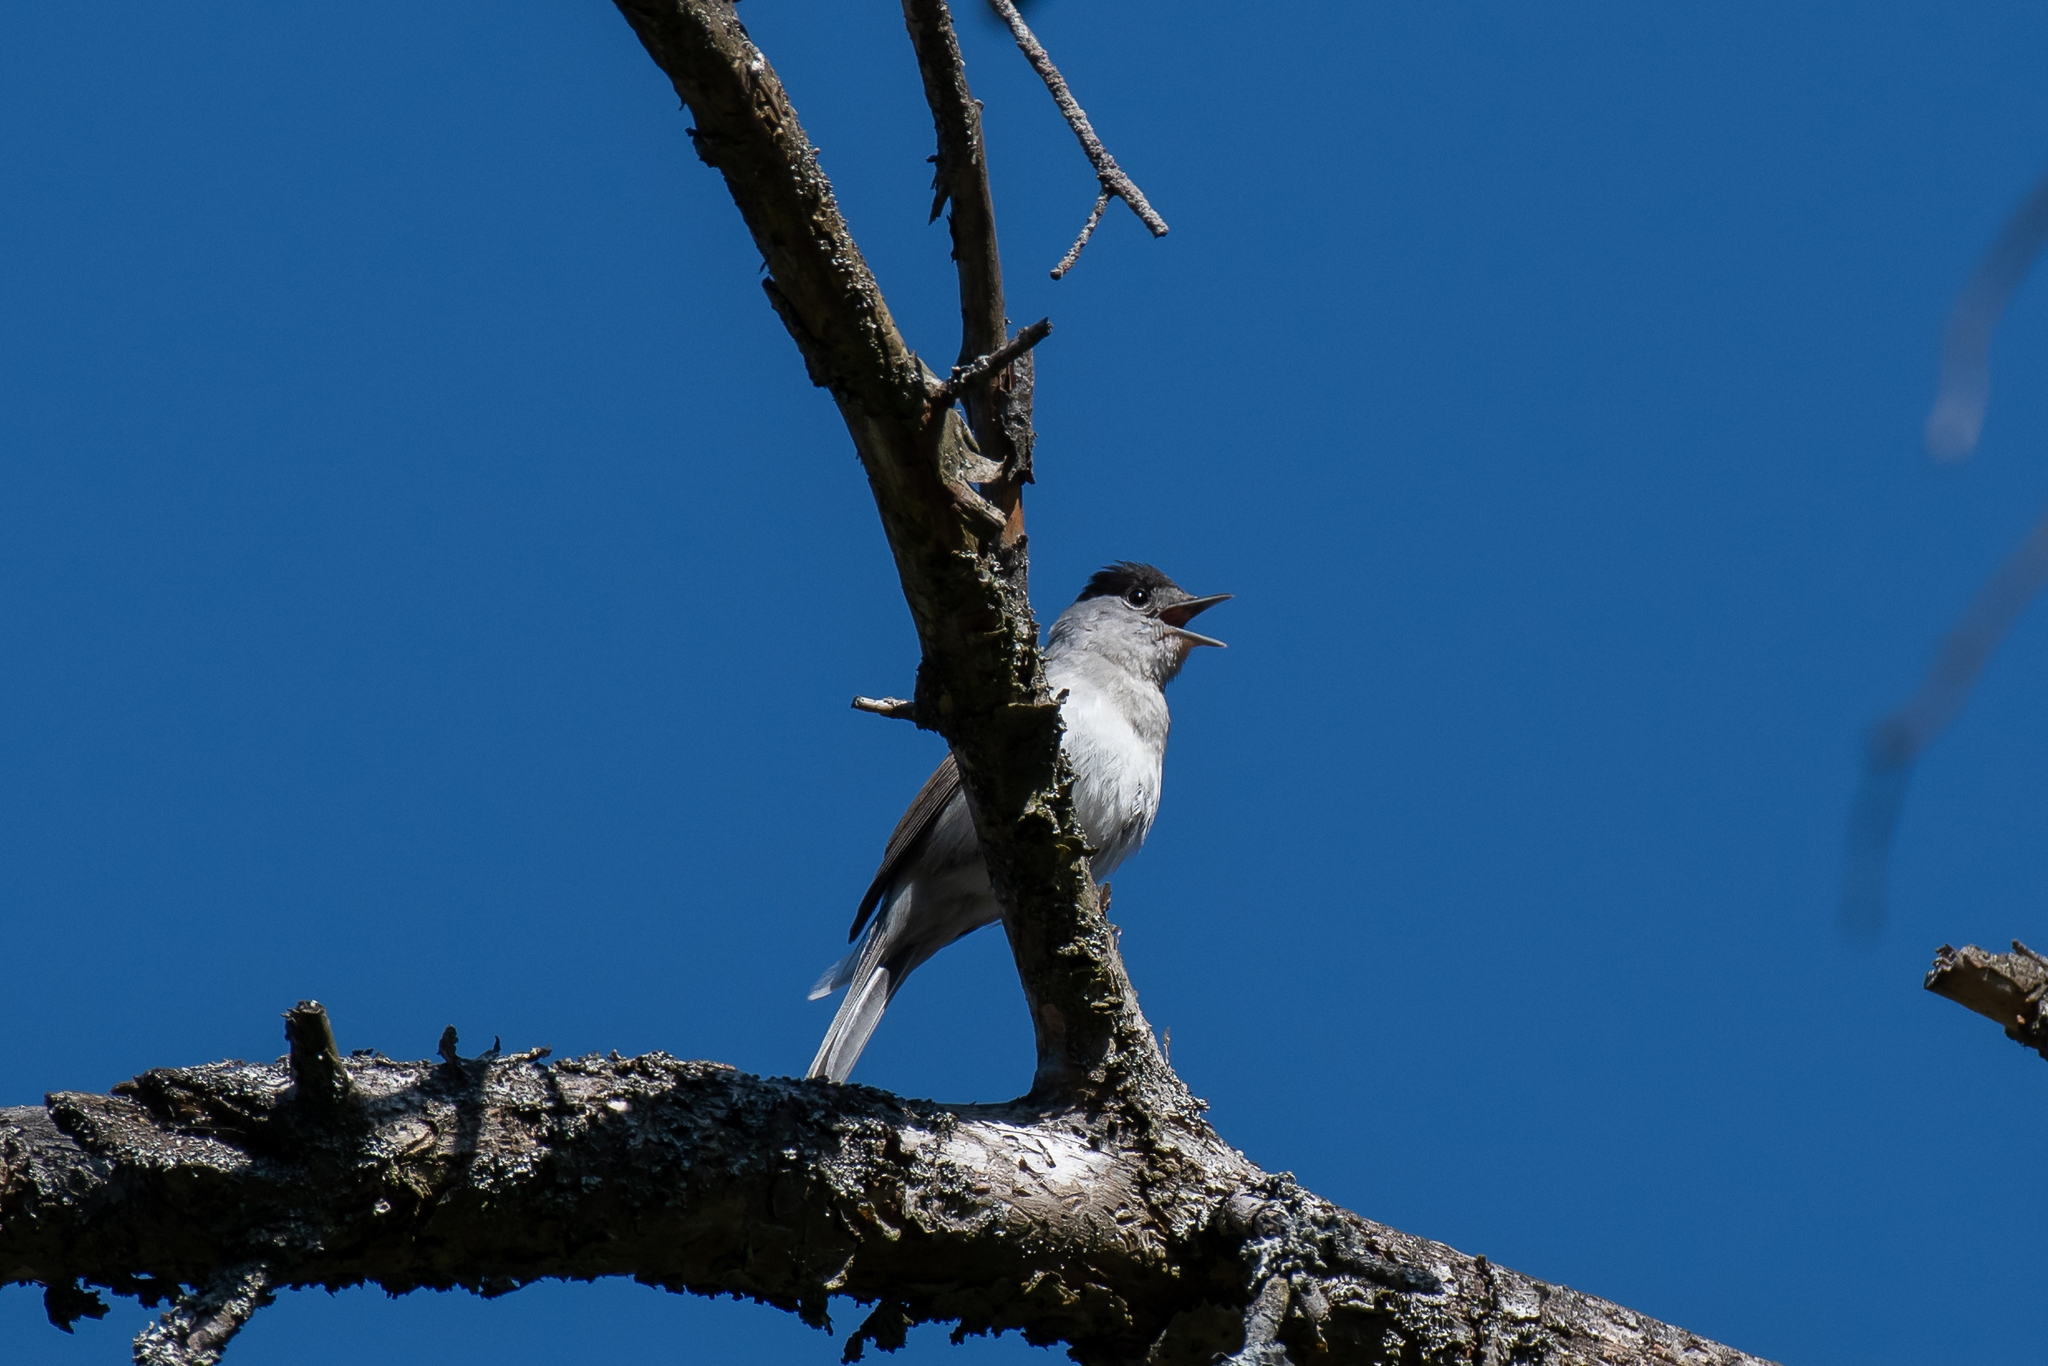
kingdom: Animalia
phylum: Chordata
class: Aves
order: Passeriformes
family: Sylviidae
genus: Sylvia
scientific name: Sylvia atricapilla
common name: Eurasian blackcap
